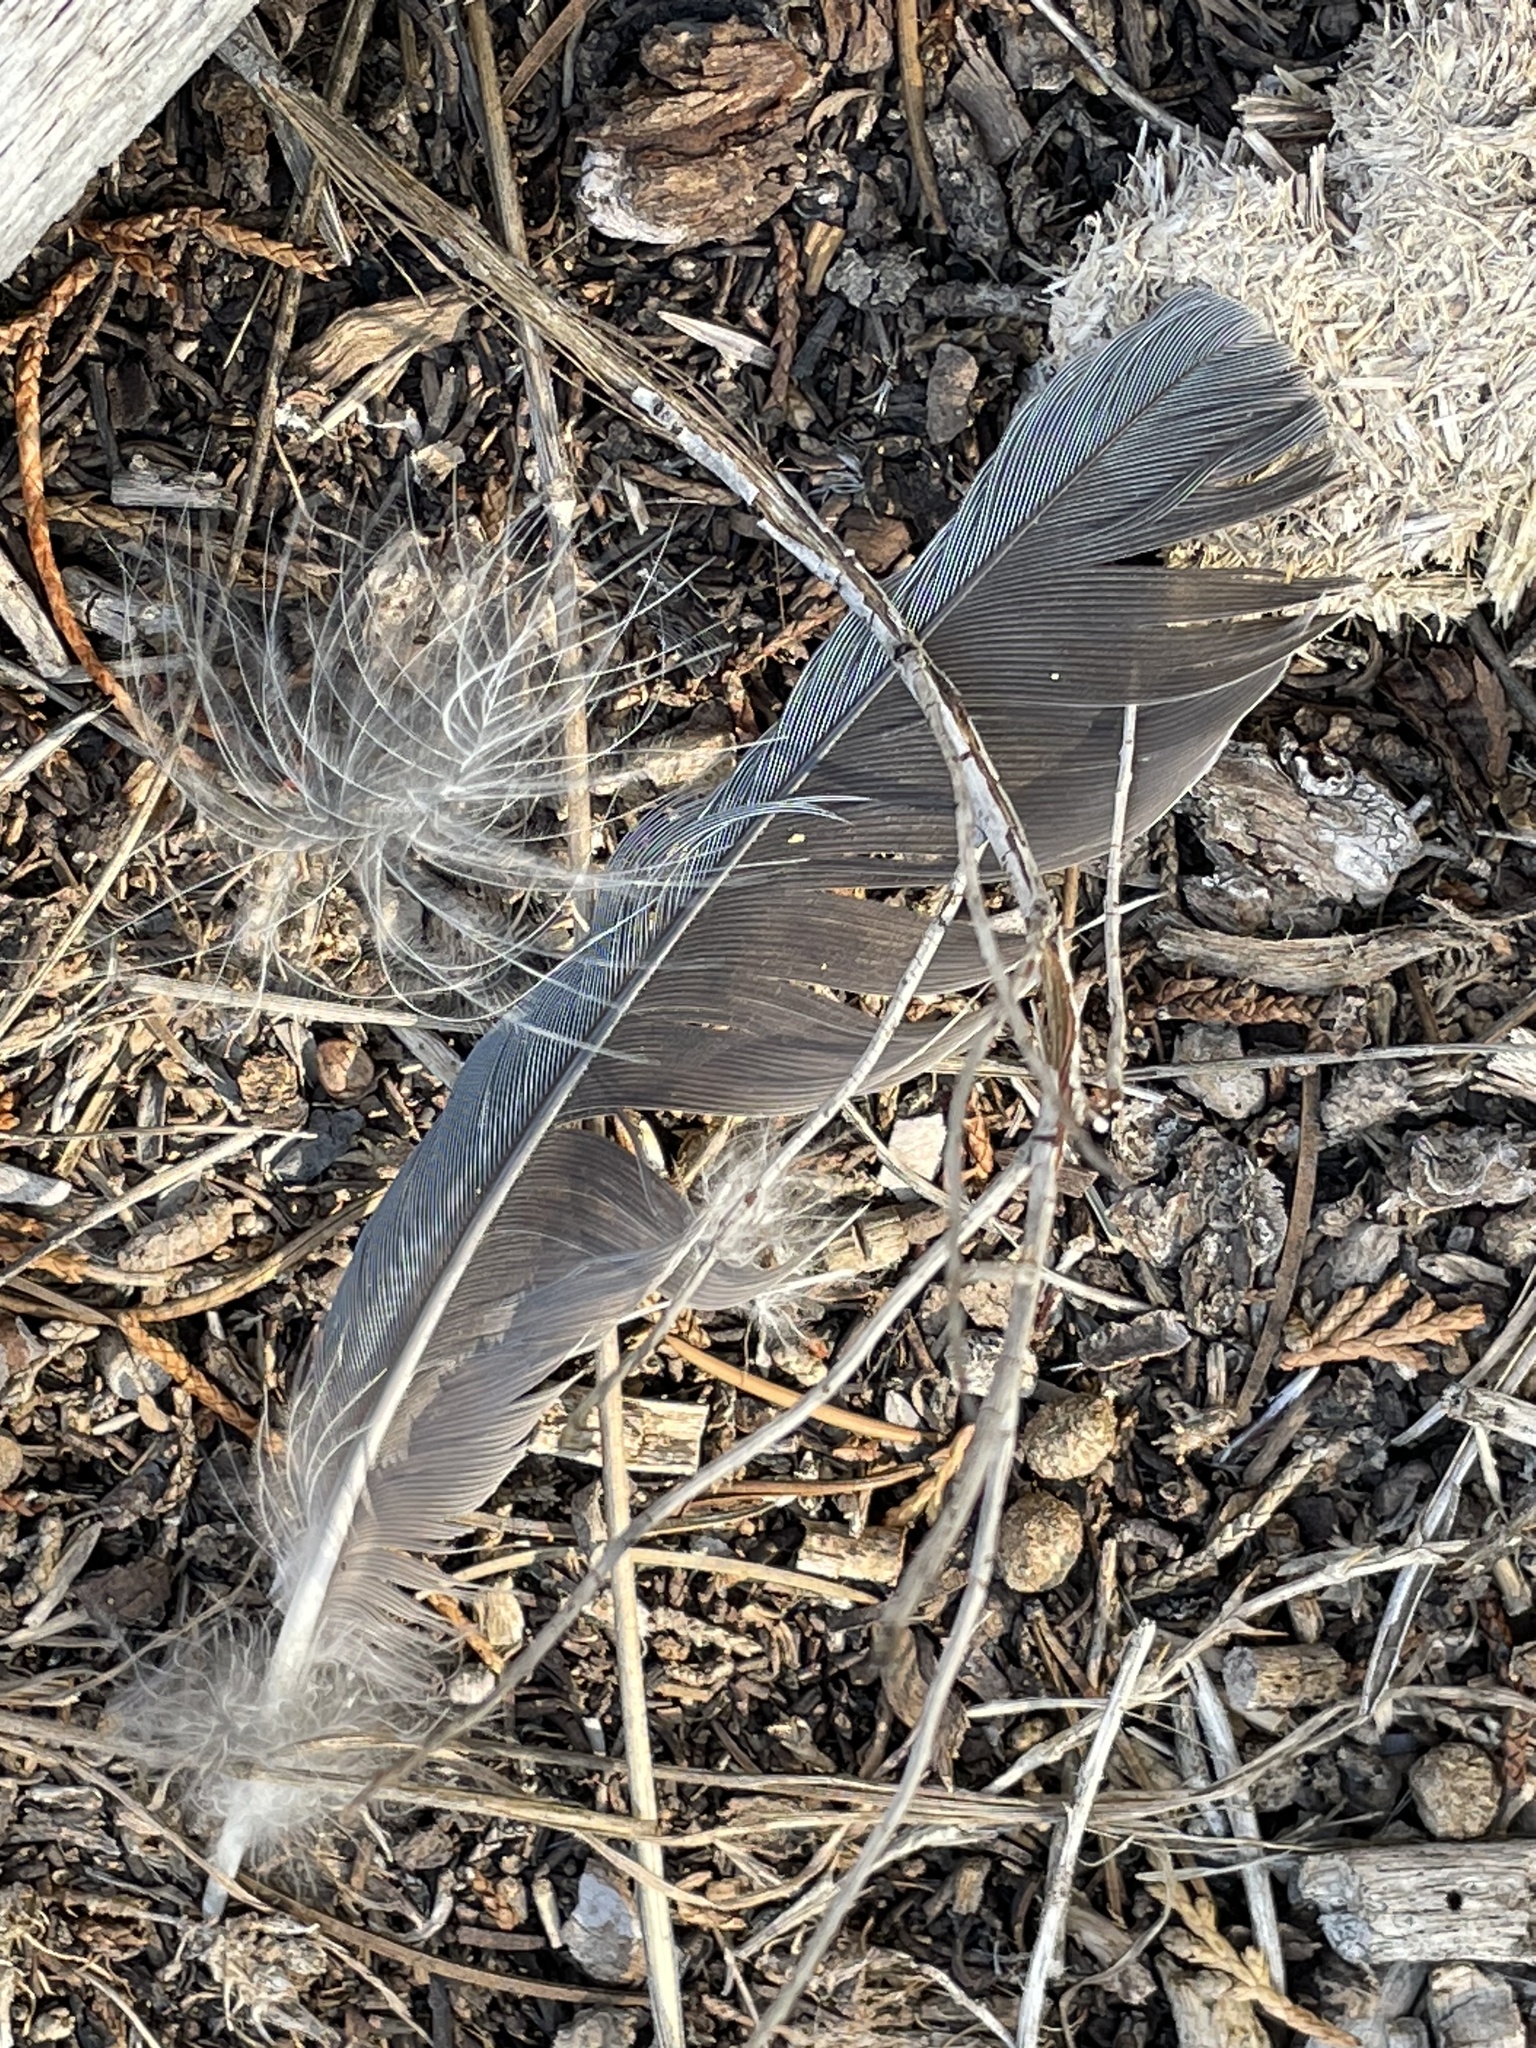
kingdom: Animalia
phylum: Chordata
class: Aves
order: Passeriformes
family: Corvidae
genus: Gymnorhinus
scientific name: Gymnorhinus cyanocephalus
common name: Pinyon jay
